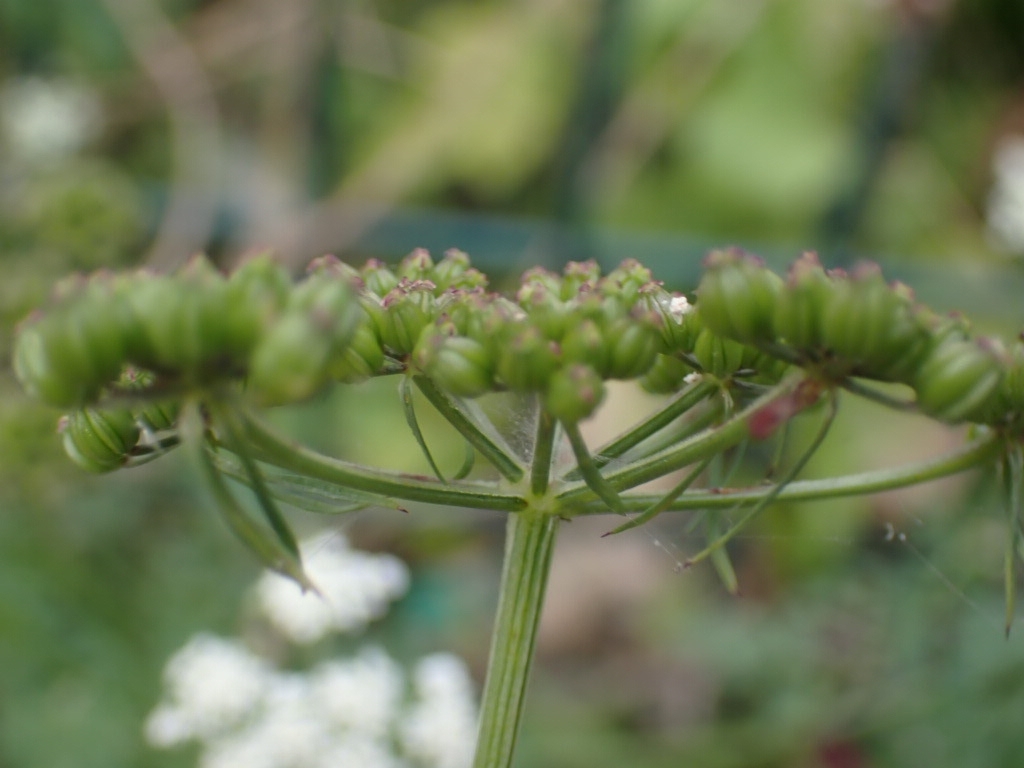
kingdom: Plantae
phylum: Tracheophyta
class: Magnoliopsida
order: Apiales
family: Apiaceae
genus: Aethusa
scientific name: Aethusa cynapium
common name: Fool's parsley
